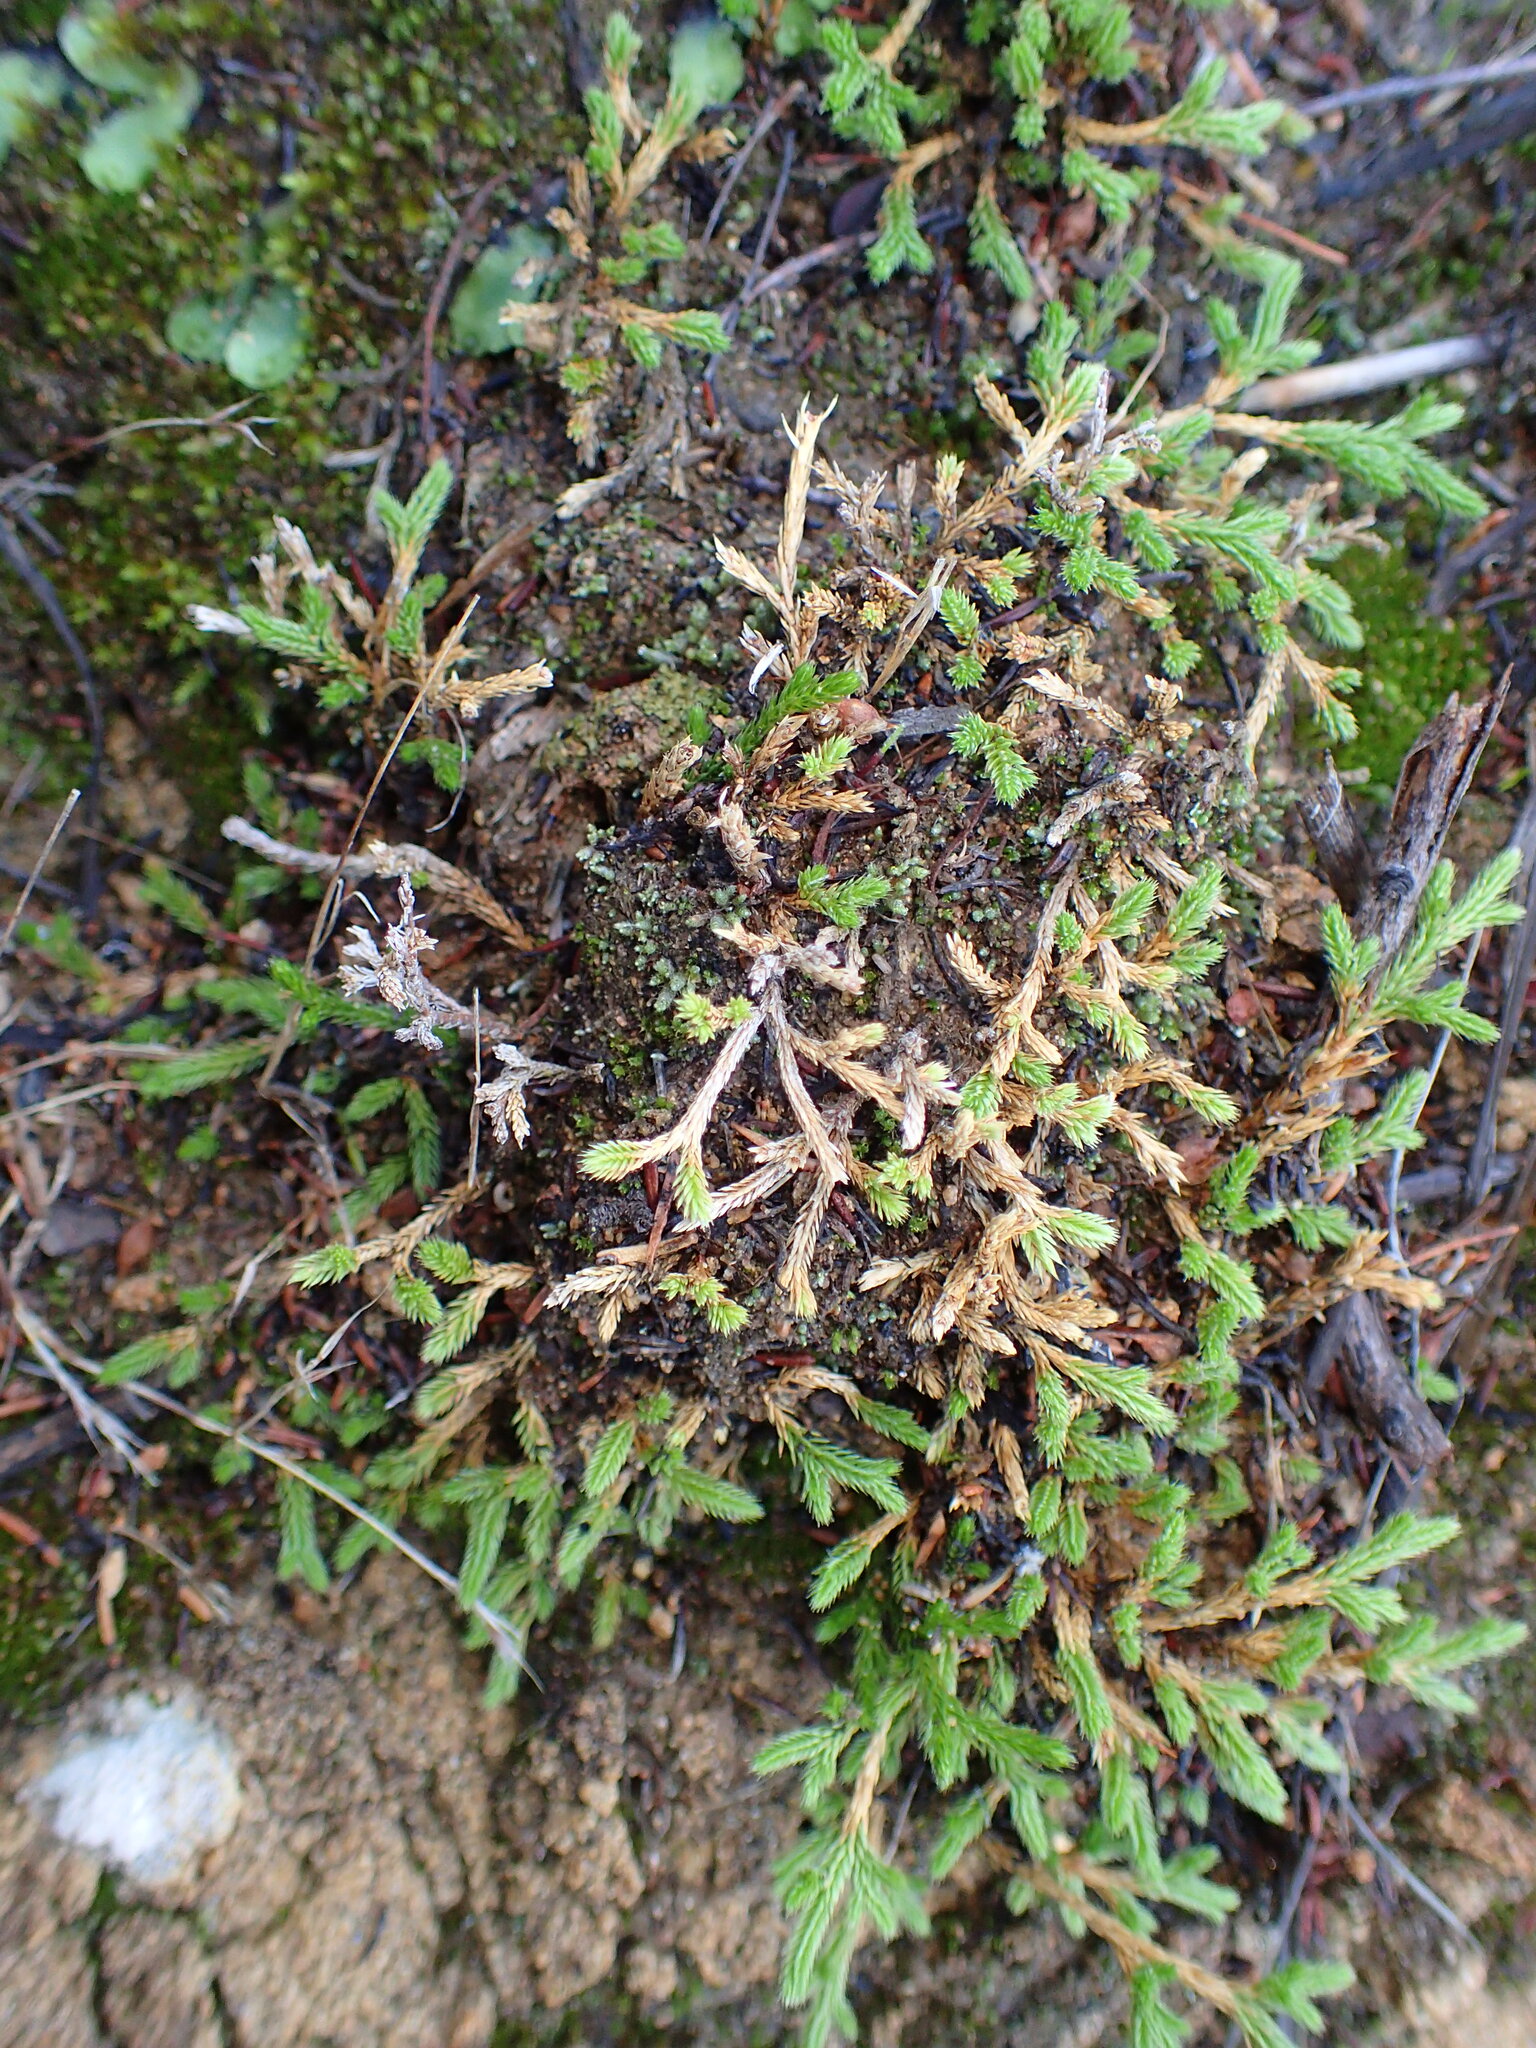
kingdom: Plantae
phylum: Tracheophyta
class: Lycopodiopsida
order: Selaginellales
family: Selaginellaceae
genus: Selaginella
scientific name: Selaginella bigelovii
